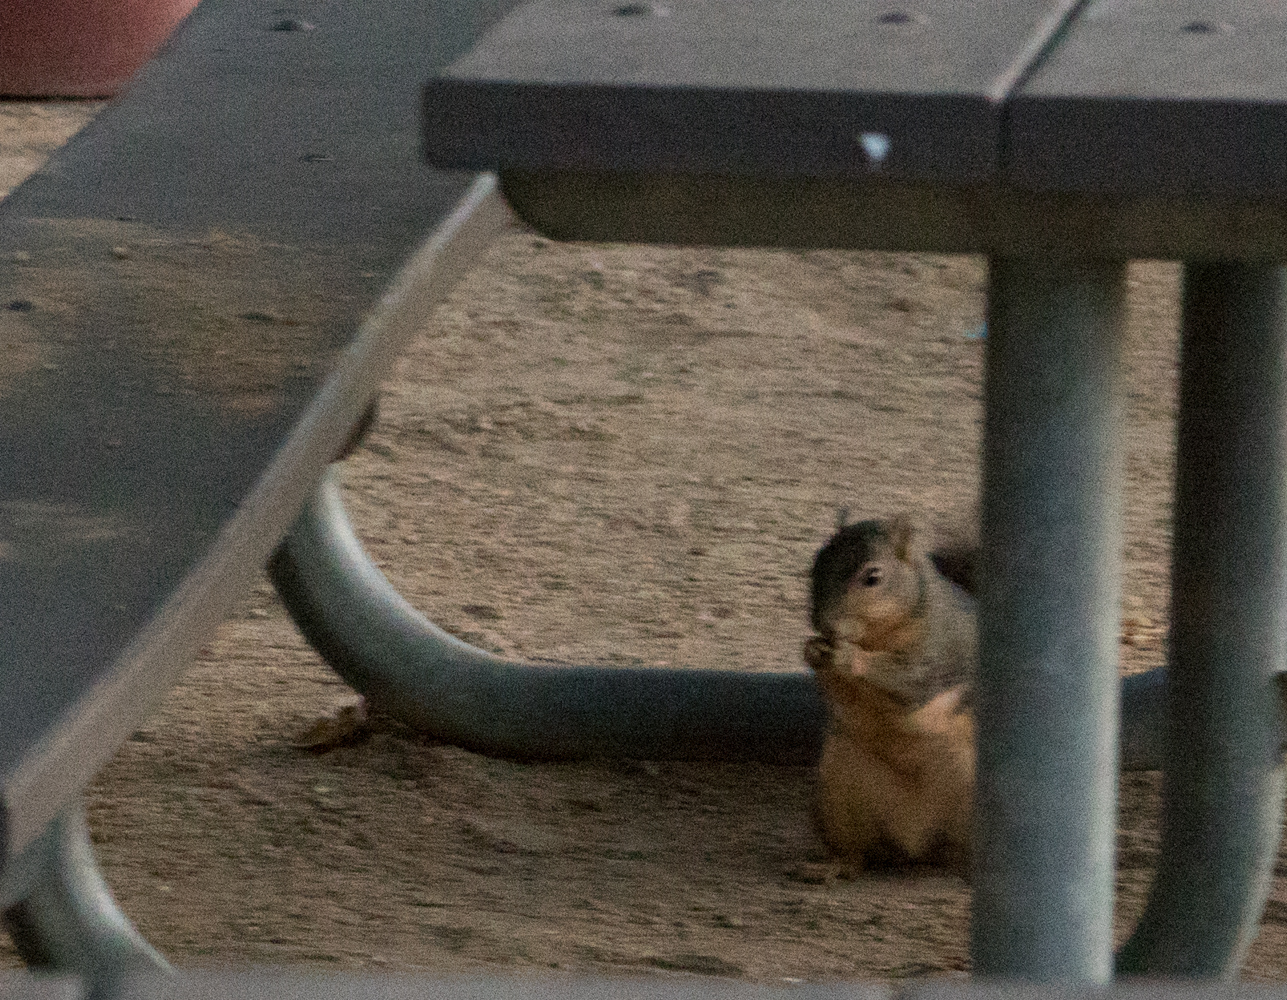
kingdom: Animalia
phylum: Chordata
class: Mammalia
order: Rodentia
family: Sciuridae
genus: Sciurus
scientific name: Sciurus niger
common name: Fox squirrel
